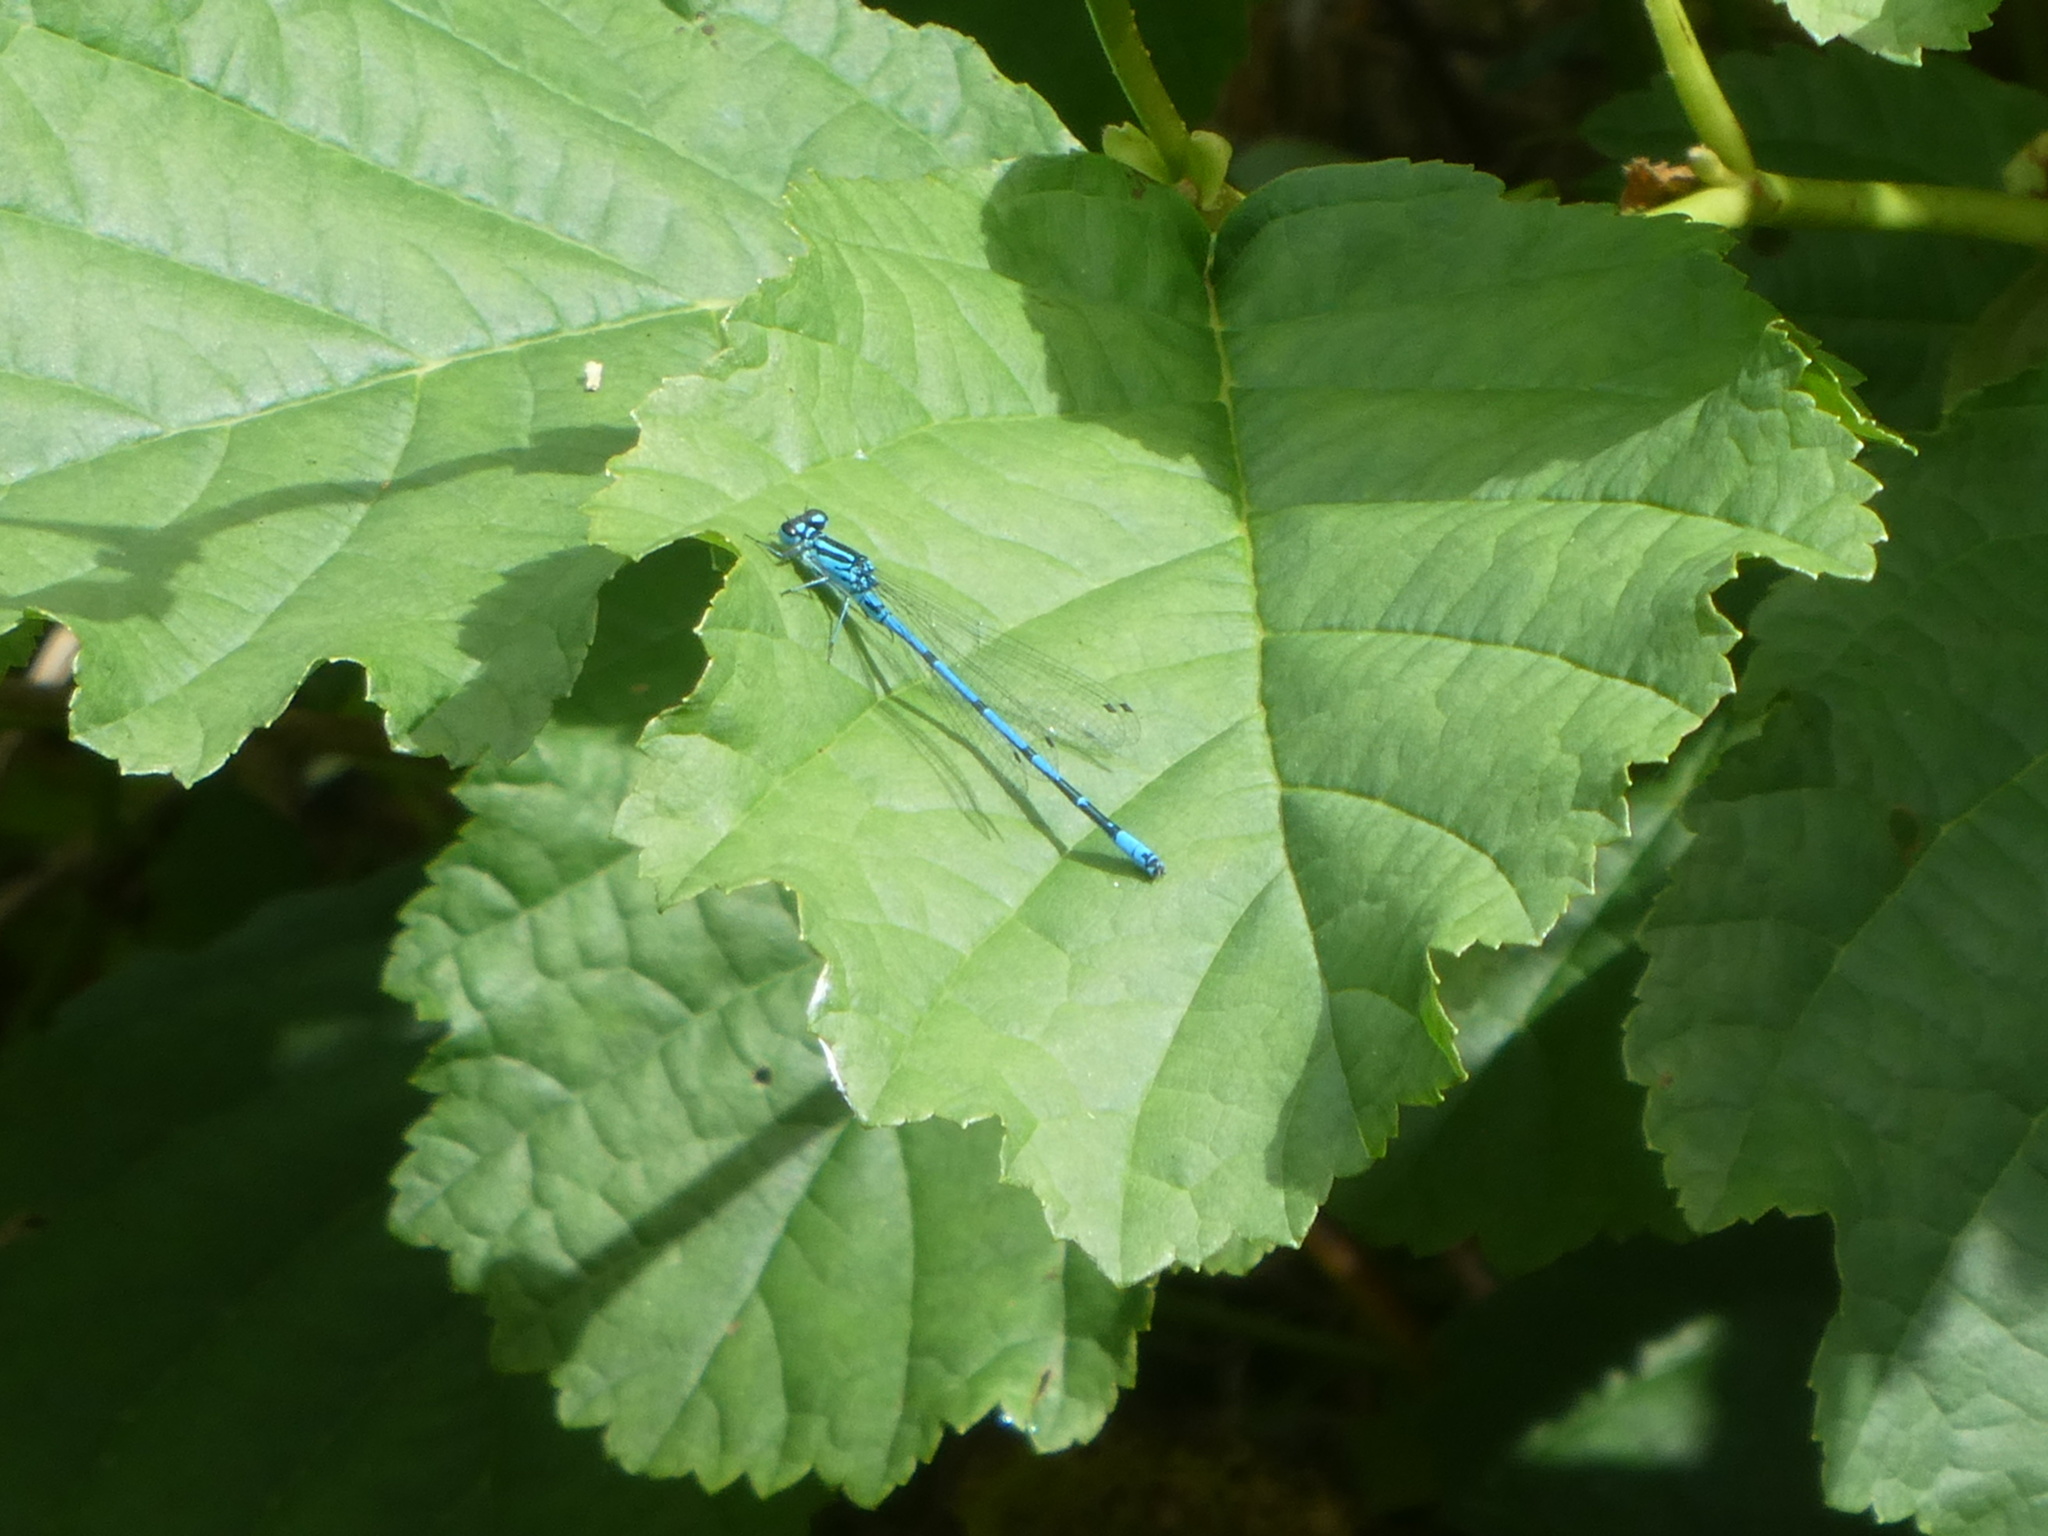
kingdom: Animalia
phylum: Arthropoda
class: Insecta
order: Odonata
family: Coenagrionidae
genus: Coenagrion
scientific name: Coenagrion puella
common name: Azure damselfly
